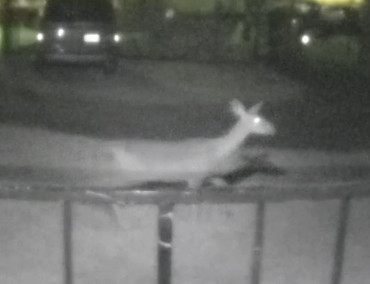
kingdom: Animalia
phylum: Chordata
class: Mammalia
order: Artiodactyla
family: Cervidae
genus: Odocoileus
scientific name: Odocoileus hemionus
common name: Mule deer
